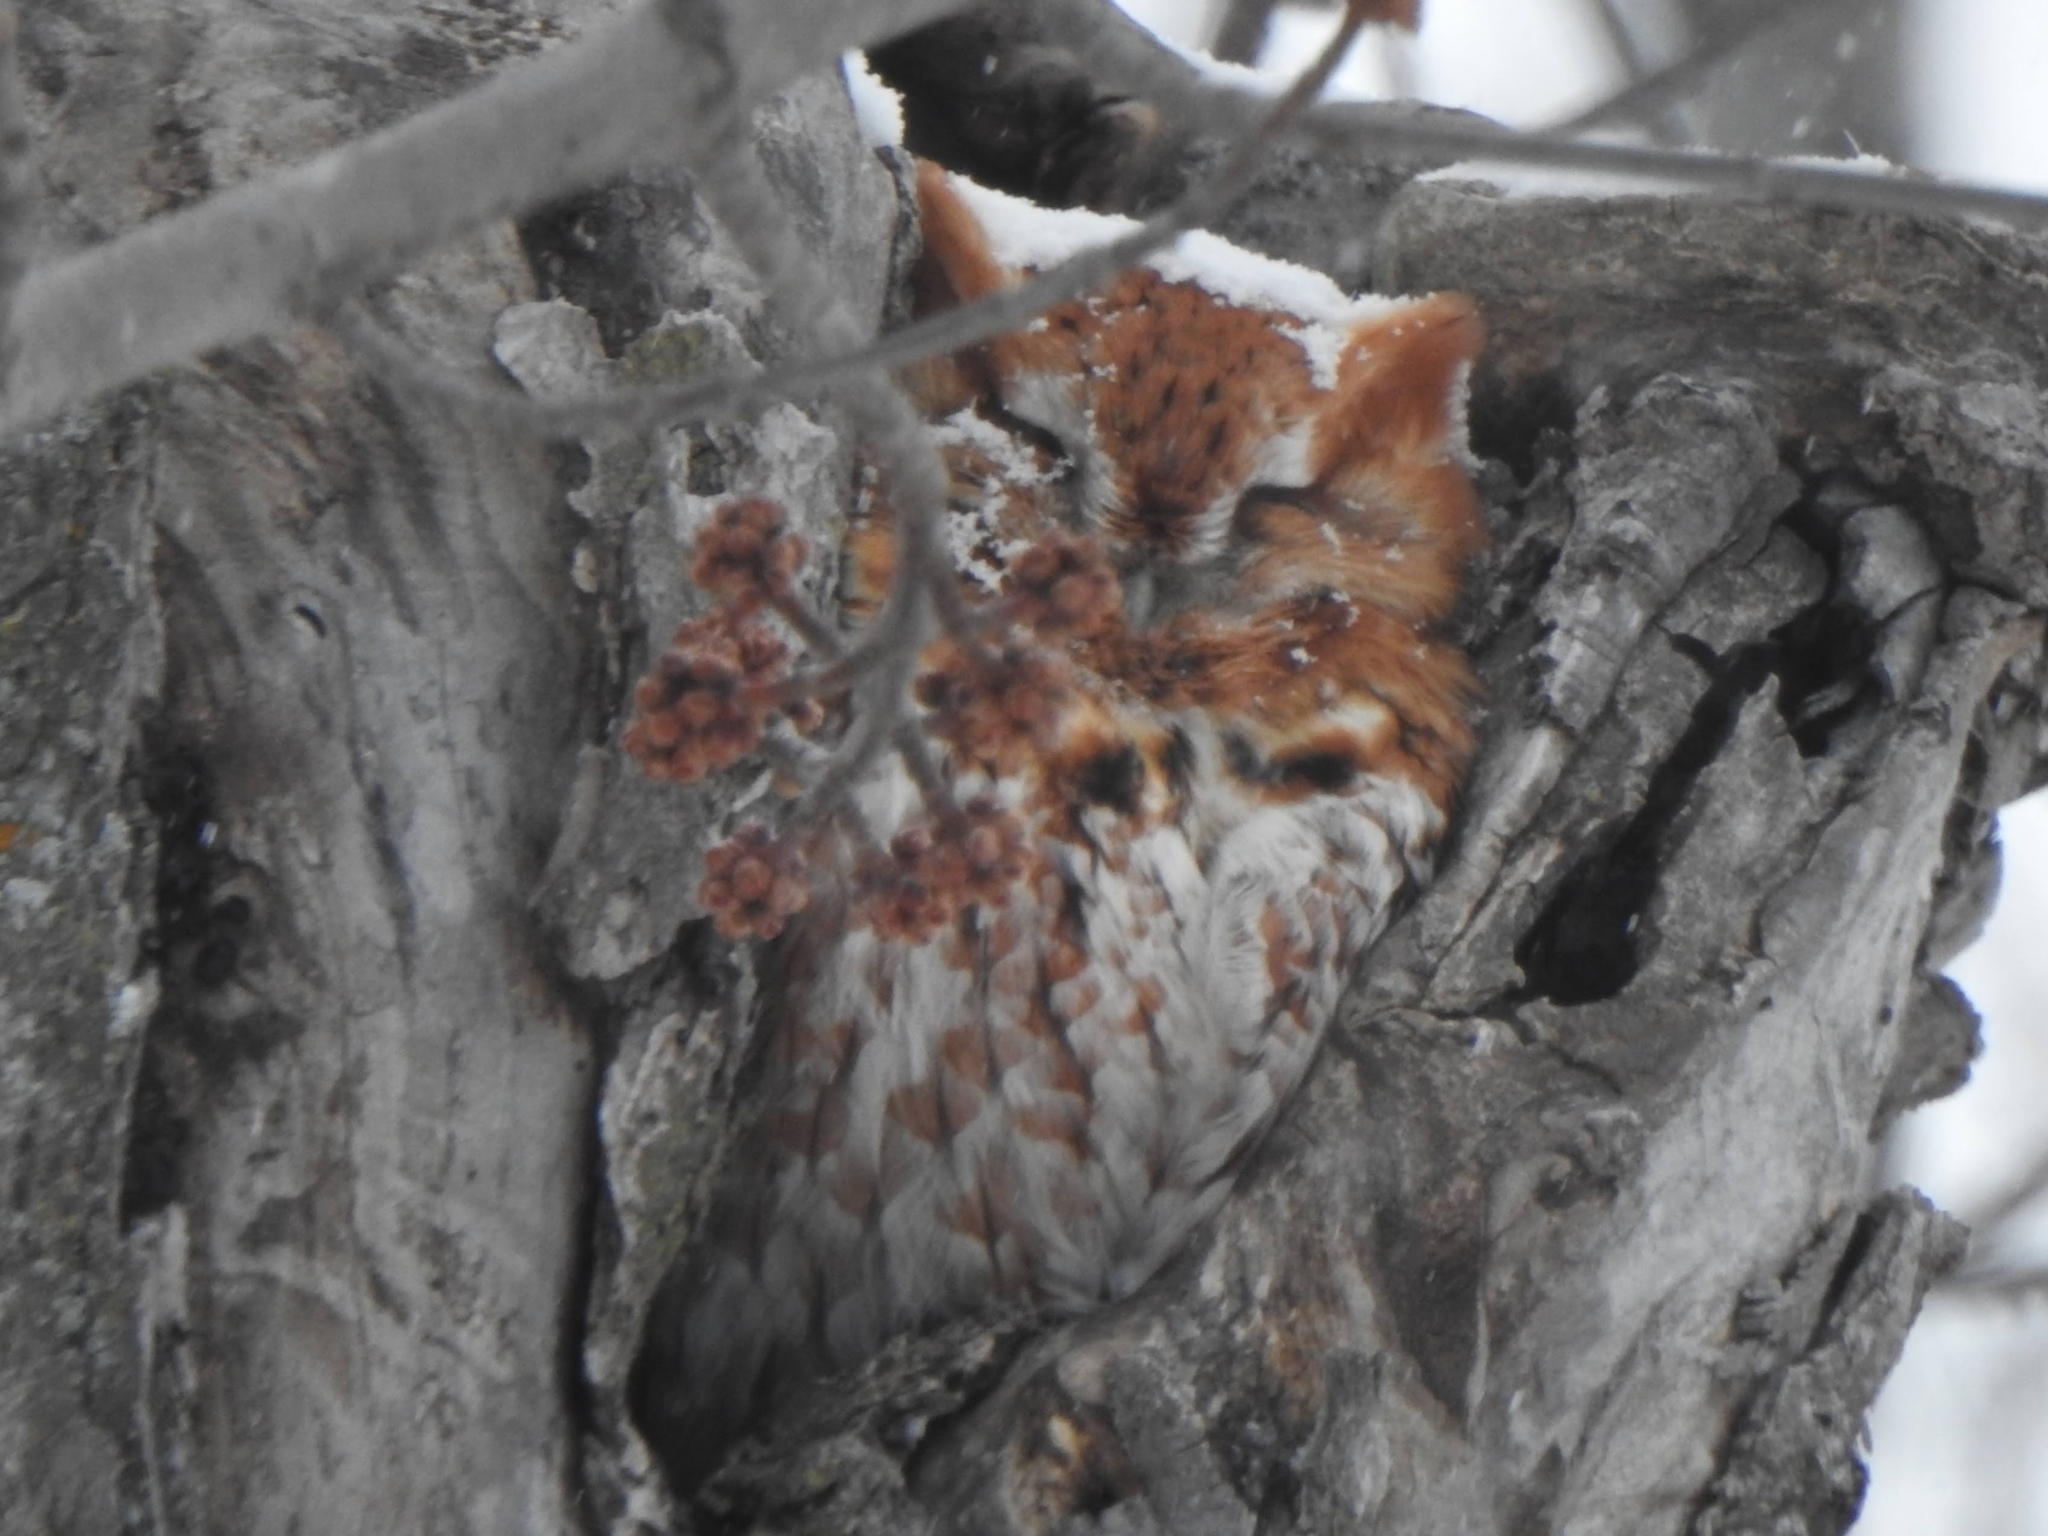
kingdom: Animalia
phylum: Chordata
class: Aves
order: Strigiformes
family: Strigidae
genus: Megascops
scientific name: Megascops asio
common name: Eastern screech-owl
